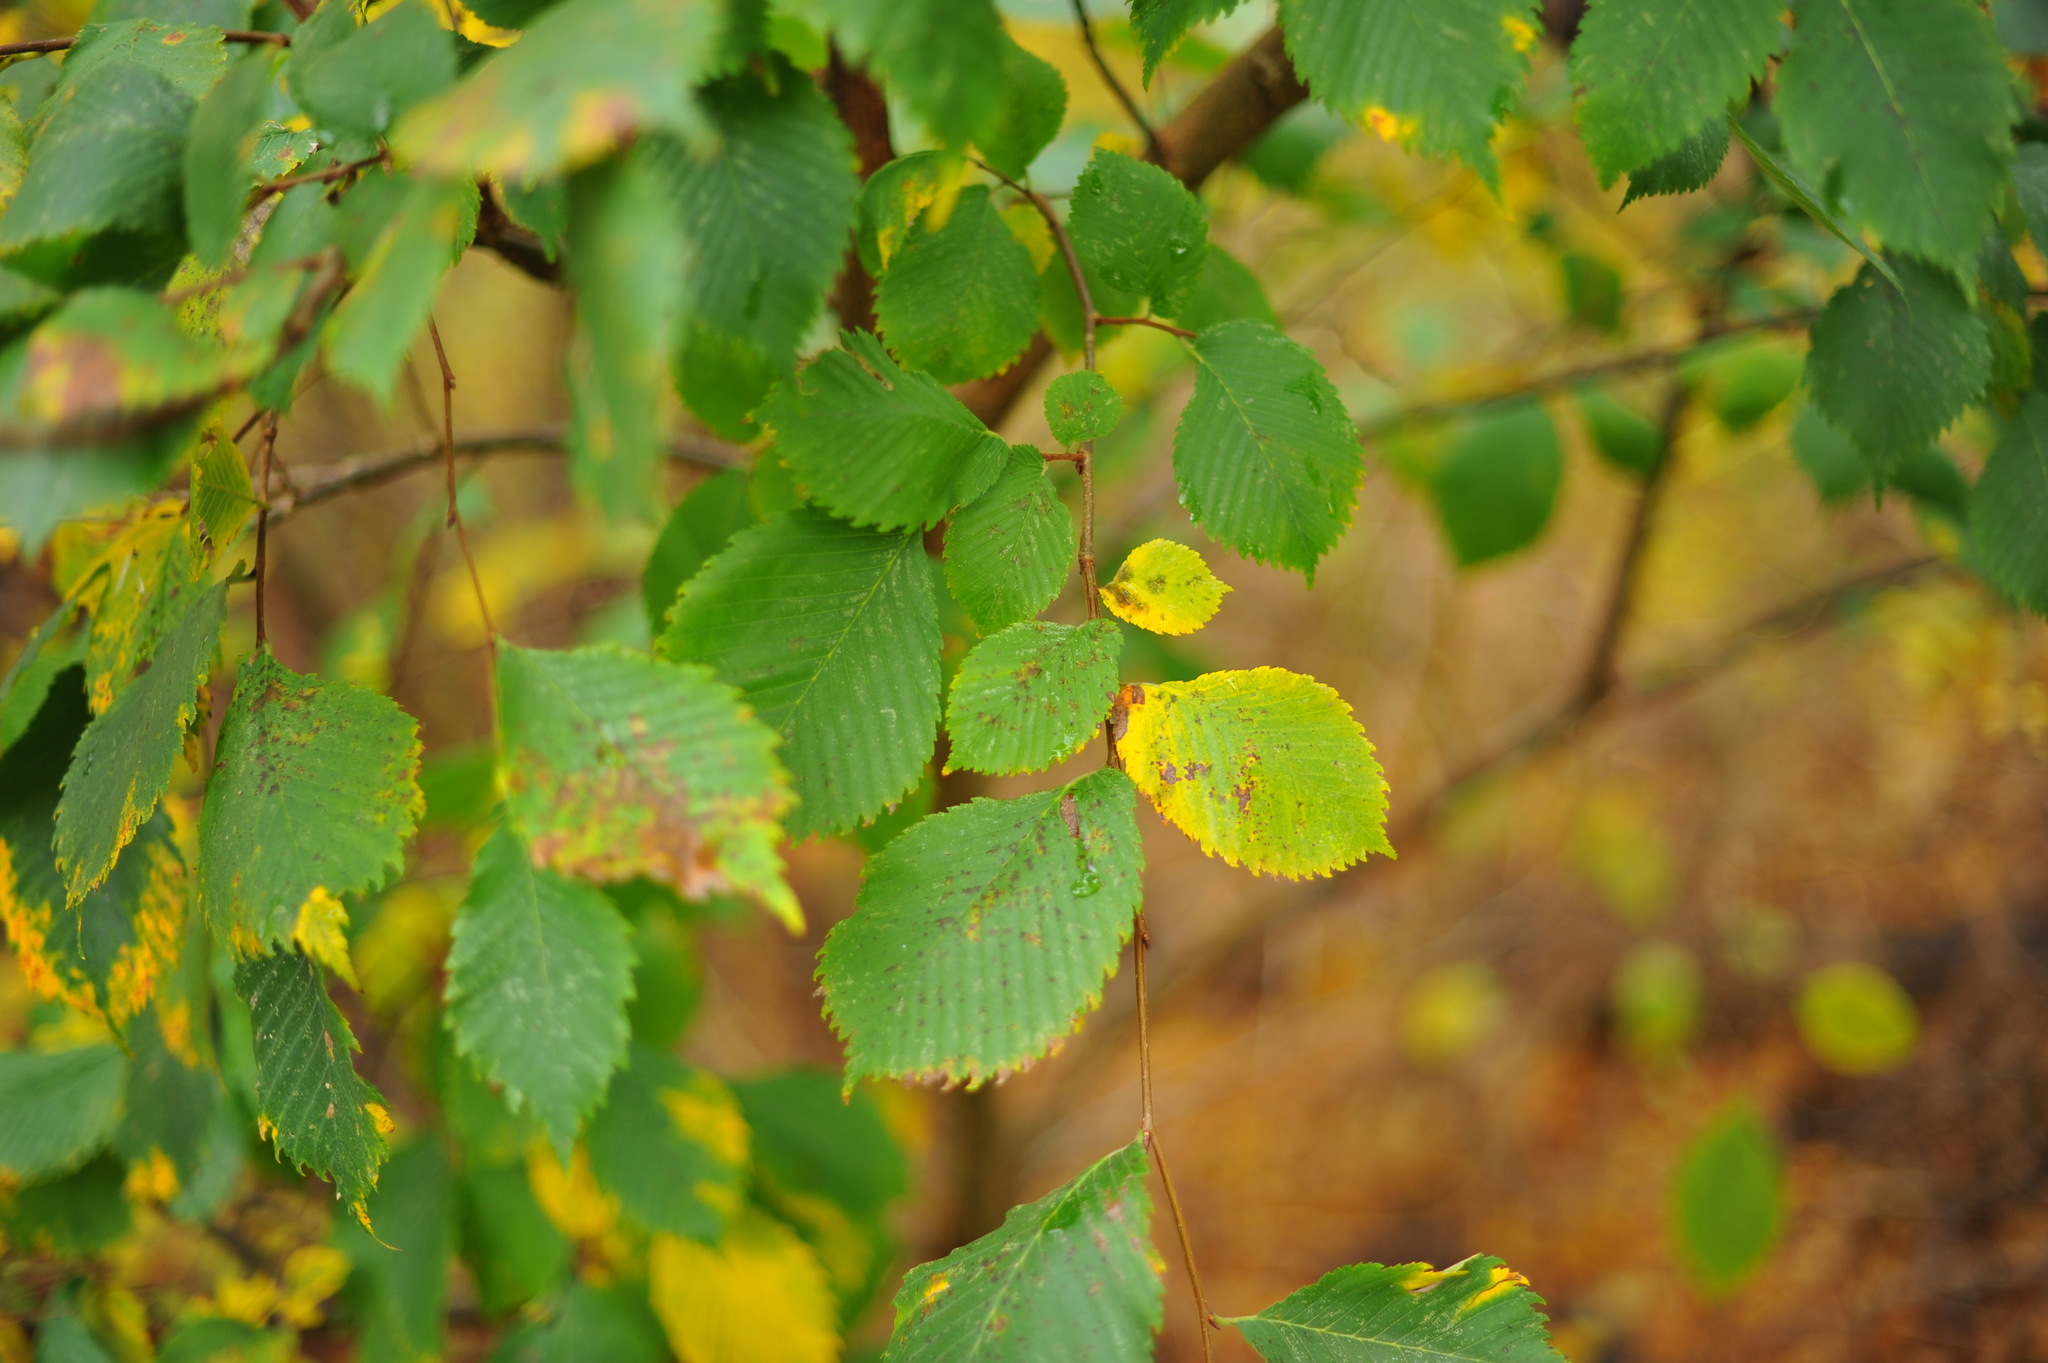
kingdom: Plantae
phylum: Tracheophyta
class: Magnoliopsida
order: Rosales
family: Ulmaceae
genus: Ulmus
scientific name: Ulmus laevis
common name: European white-elm
